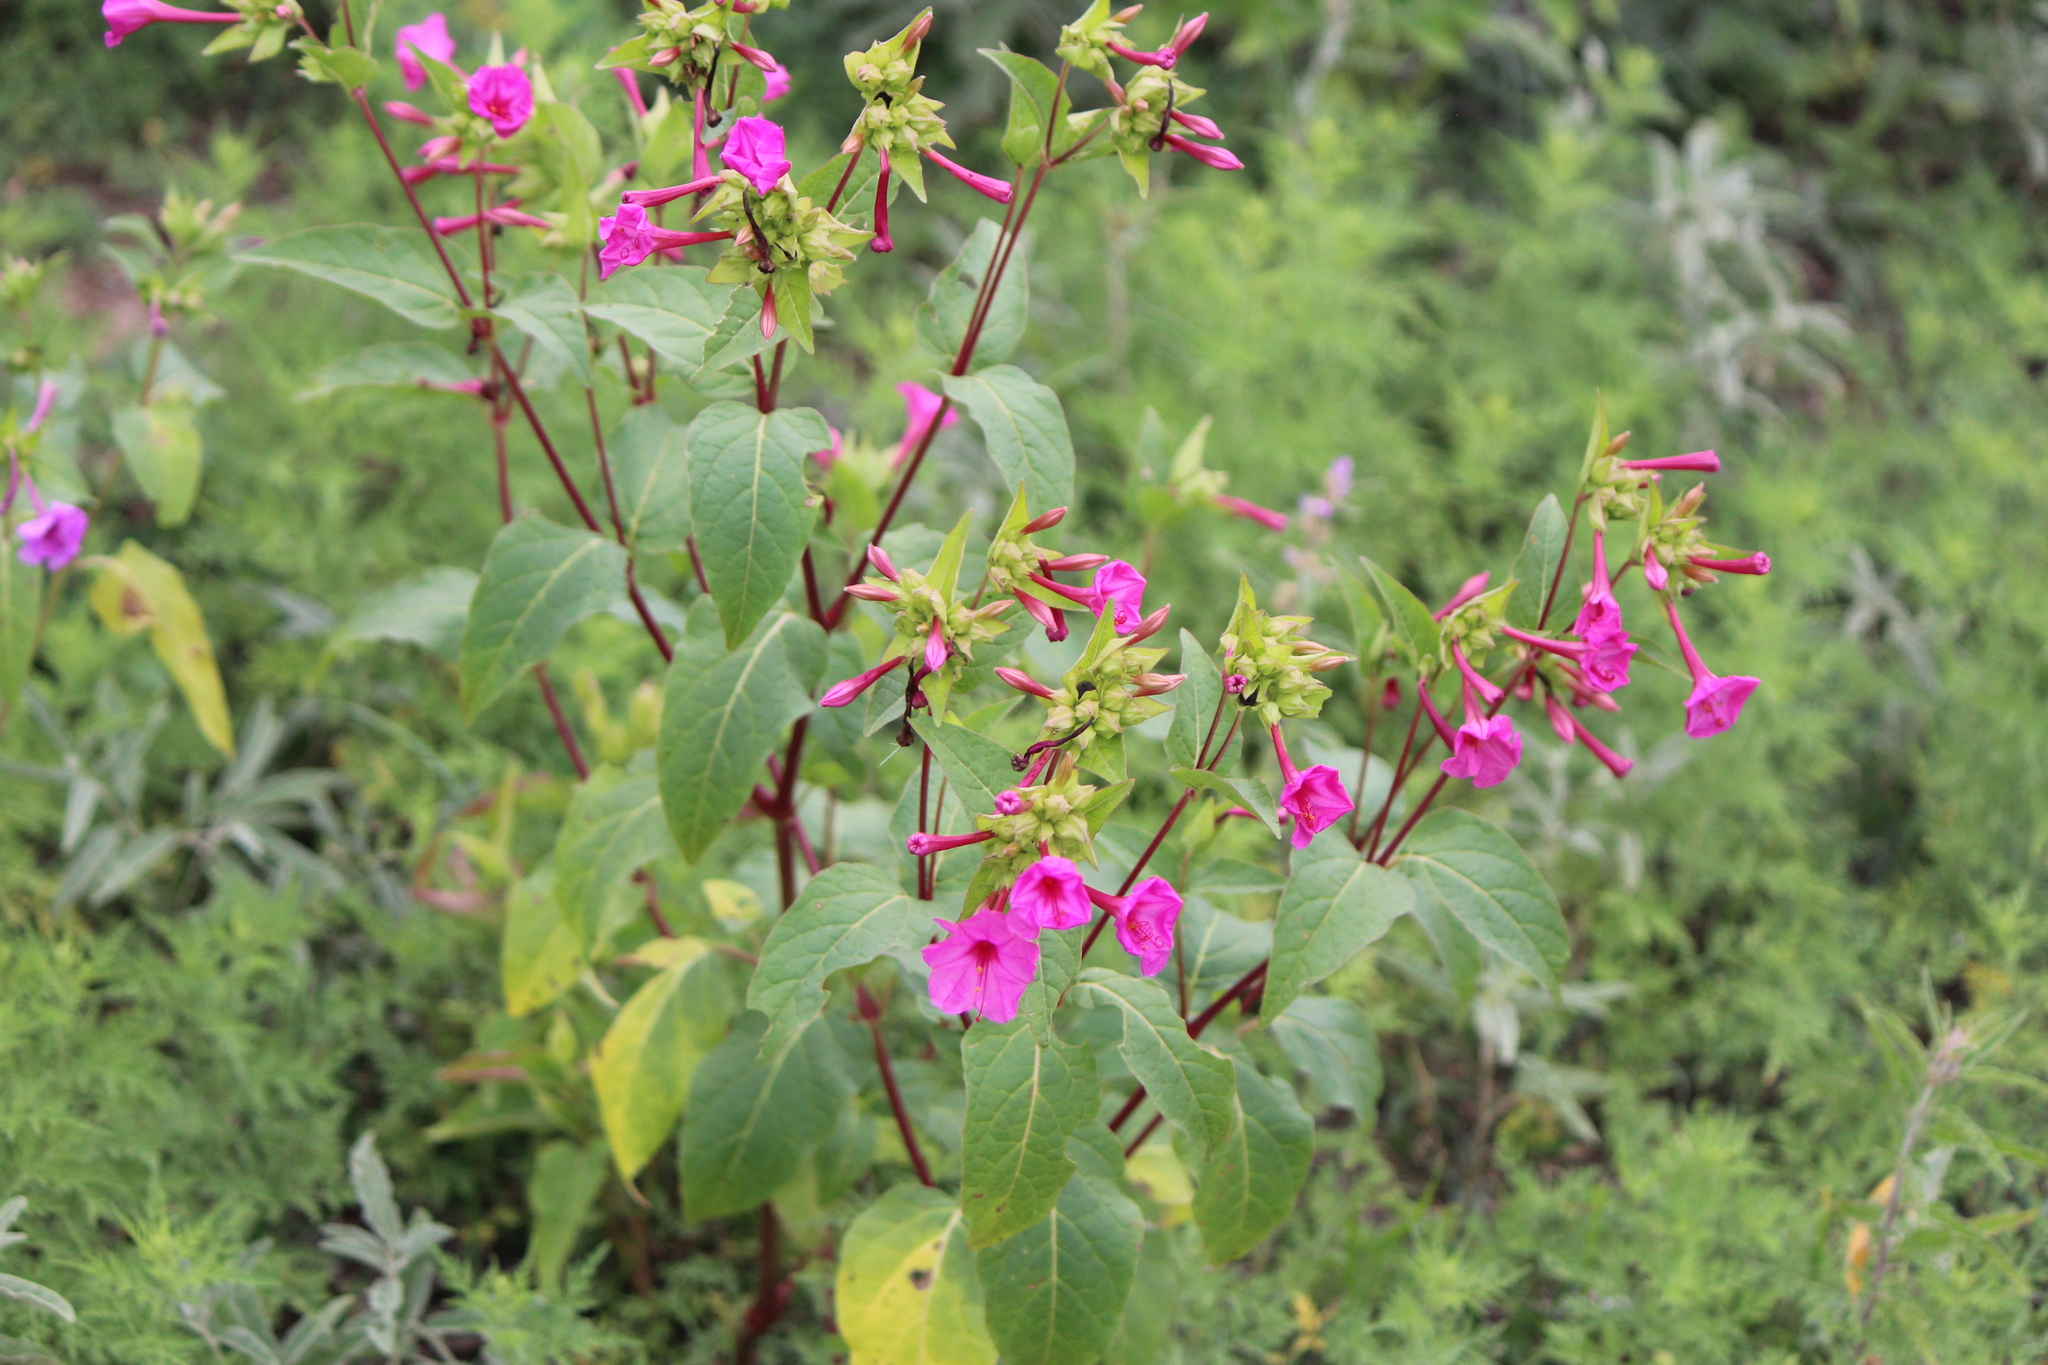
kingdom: Plantae
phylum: Tracheophyta
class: Magnoliopsida
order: Caryophyllales
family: Nyctaginaceae
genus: Mirabilis
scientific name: Mirabilis jalapa
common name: Marvel-of-peru
